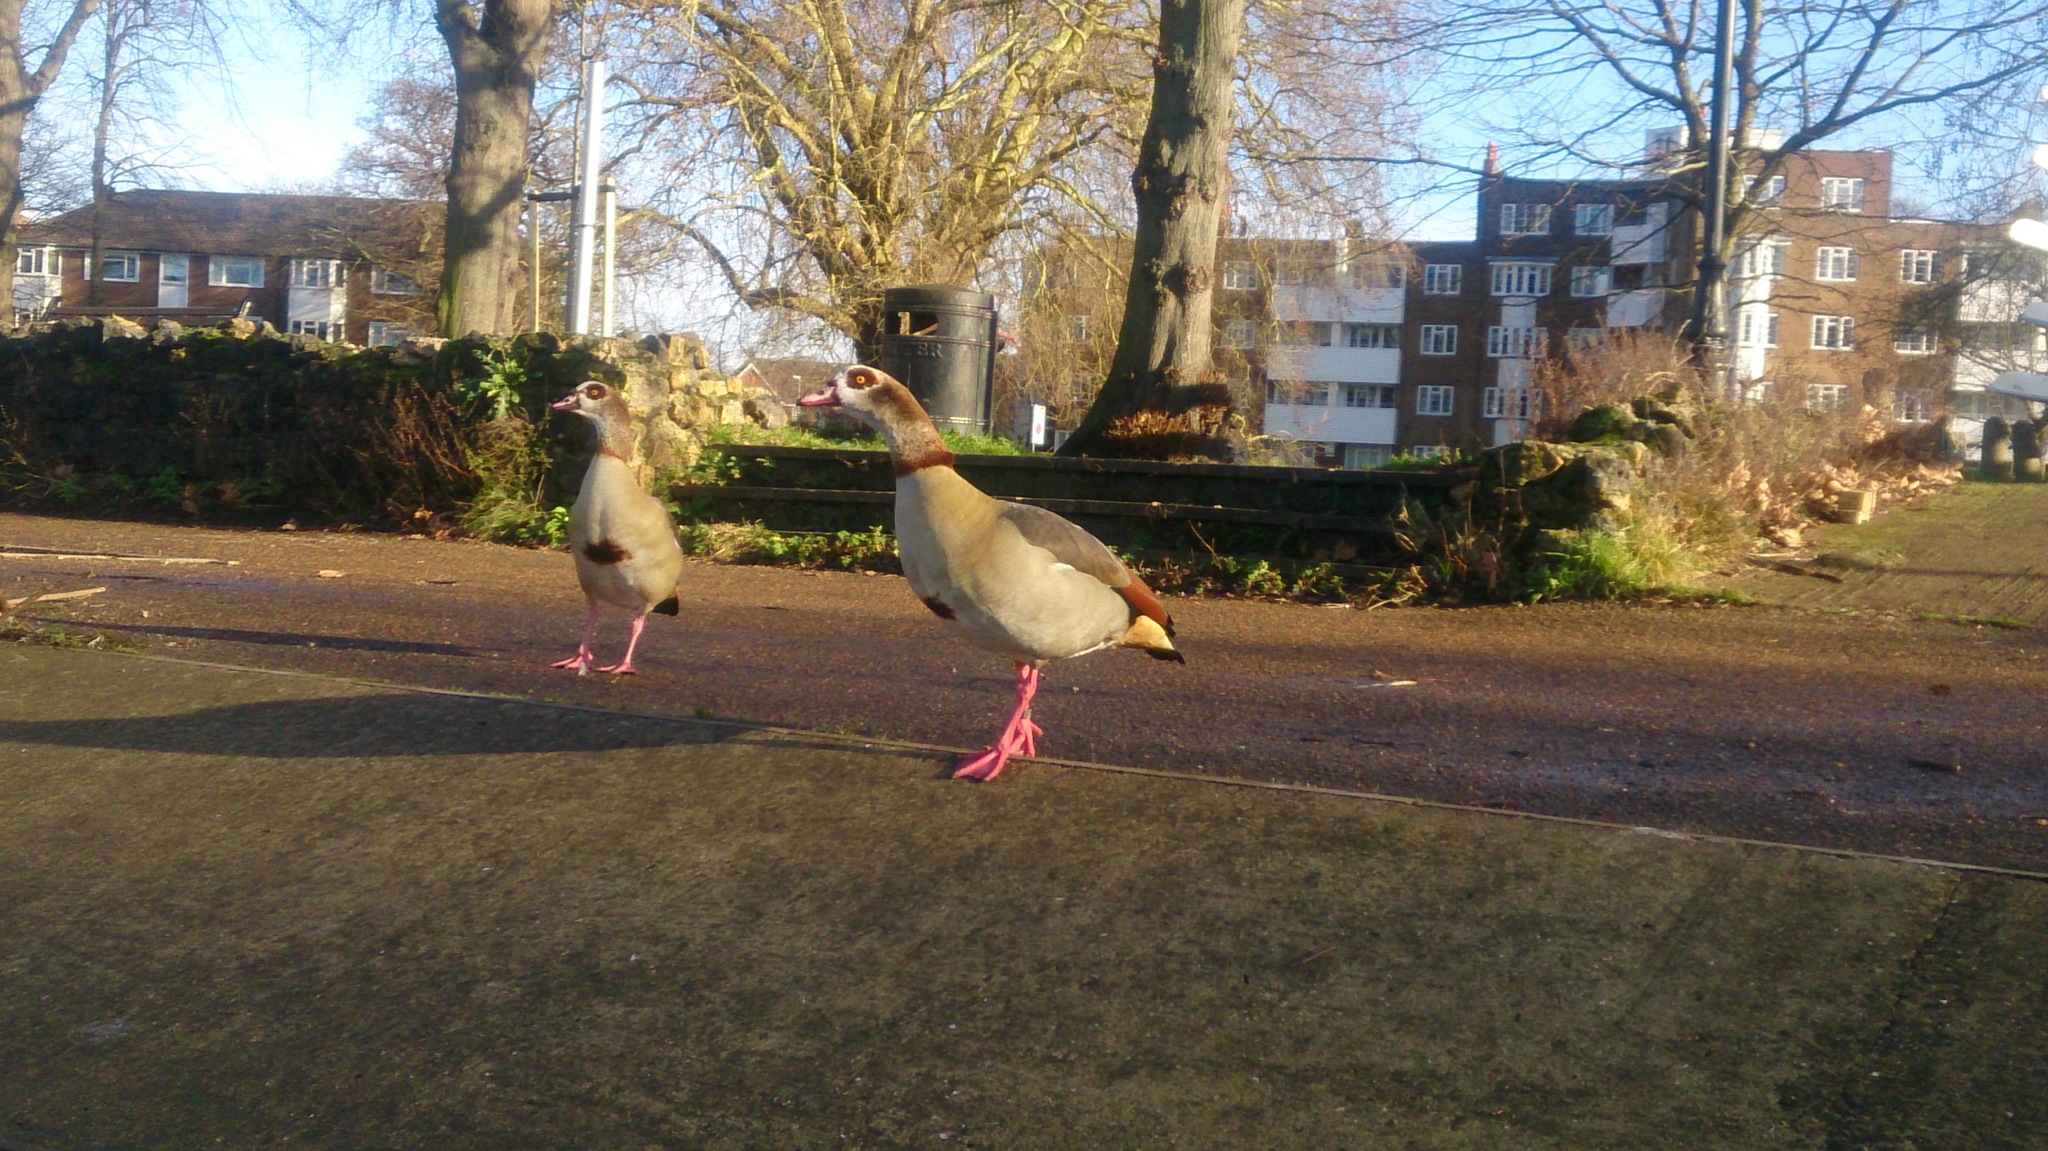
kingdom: Animalia
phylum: Chordata
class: Aves
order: Anseriformes
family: Anatidae
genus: Alopochen
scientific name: Alopochen aegyptiaca
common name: Egyptian goose
